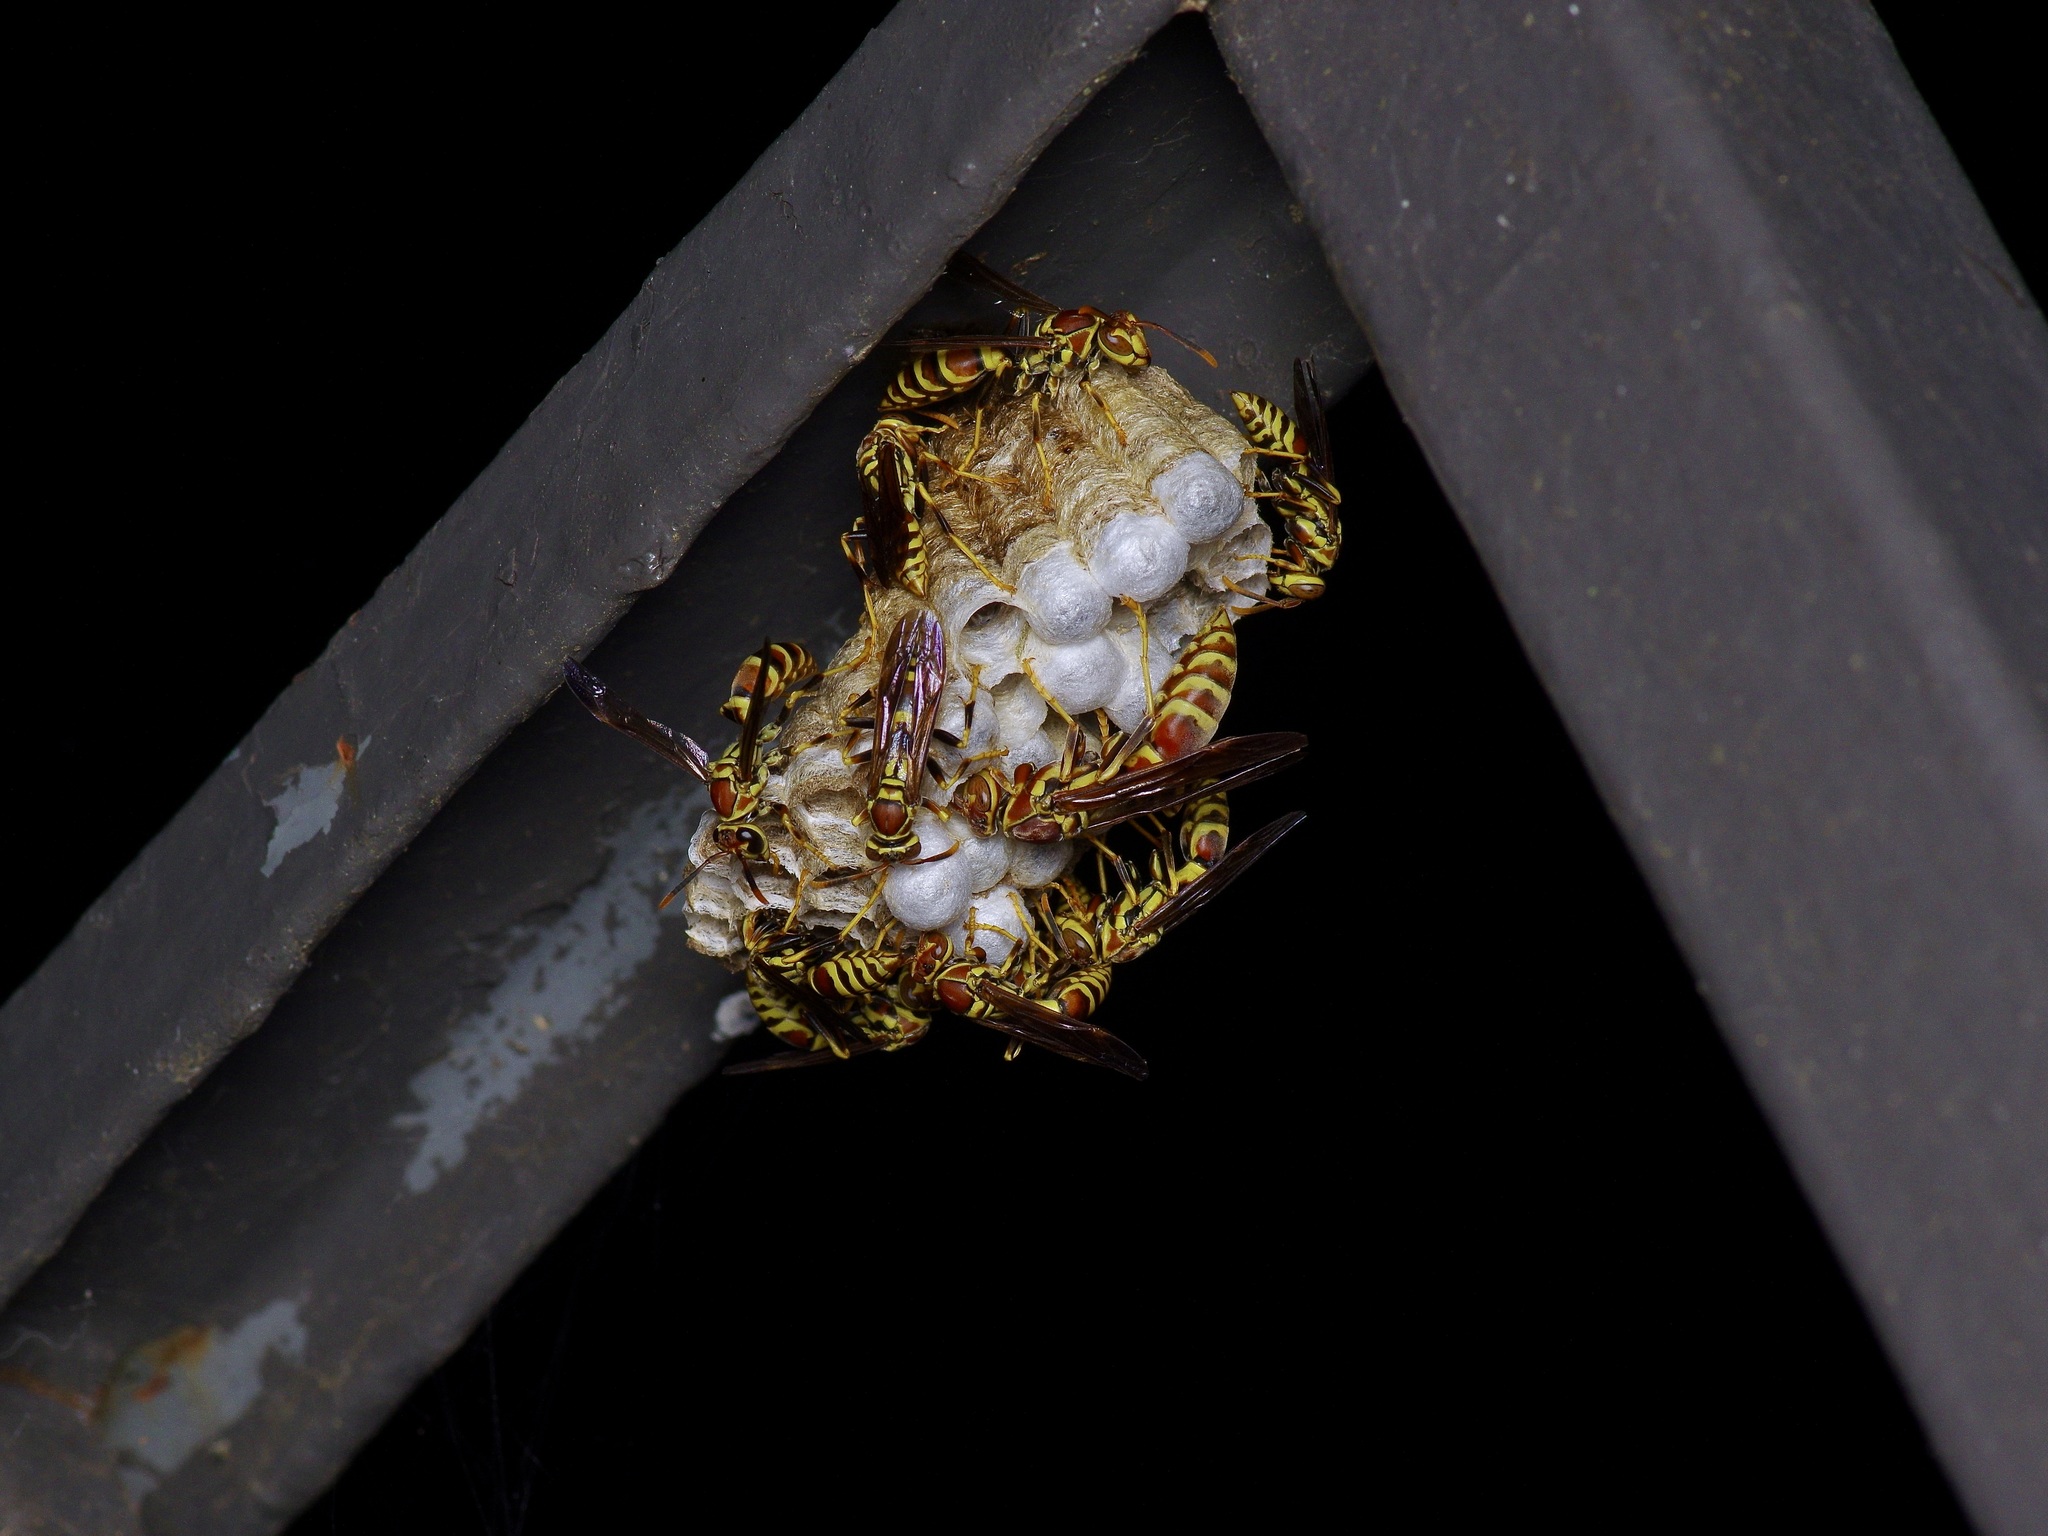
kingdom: Animalia
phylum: Arthropoda
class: Insecta
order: Hymenoptera
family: Eumenidae
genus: Polistes
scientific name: Polistes exclamans
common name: Paper wasp
